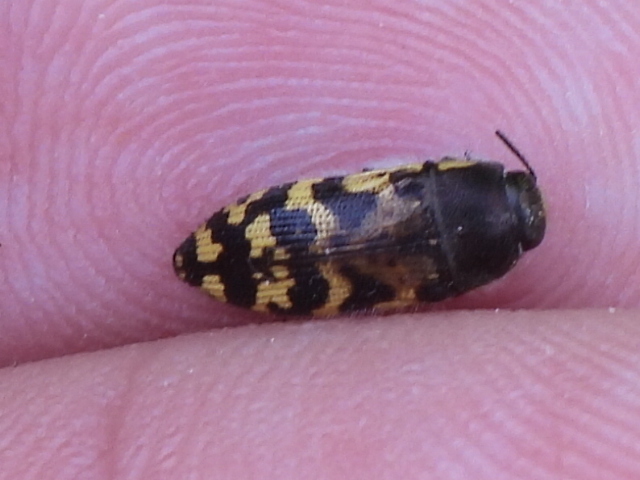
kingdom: Animalia
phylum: Arthropoda
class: Insecta
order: Coleoptera
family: Buprestidae
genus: Acmaeodera
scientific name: Acmaeodera mixta
